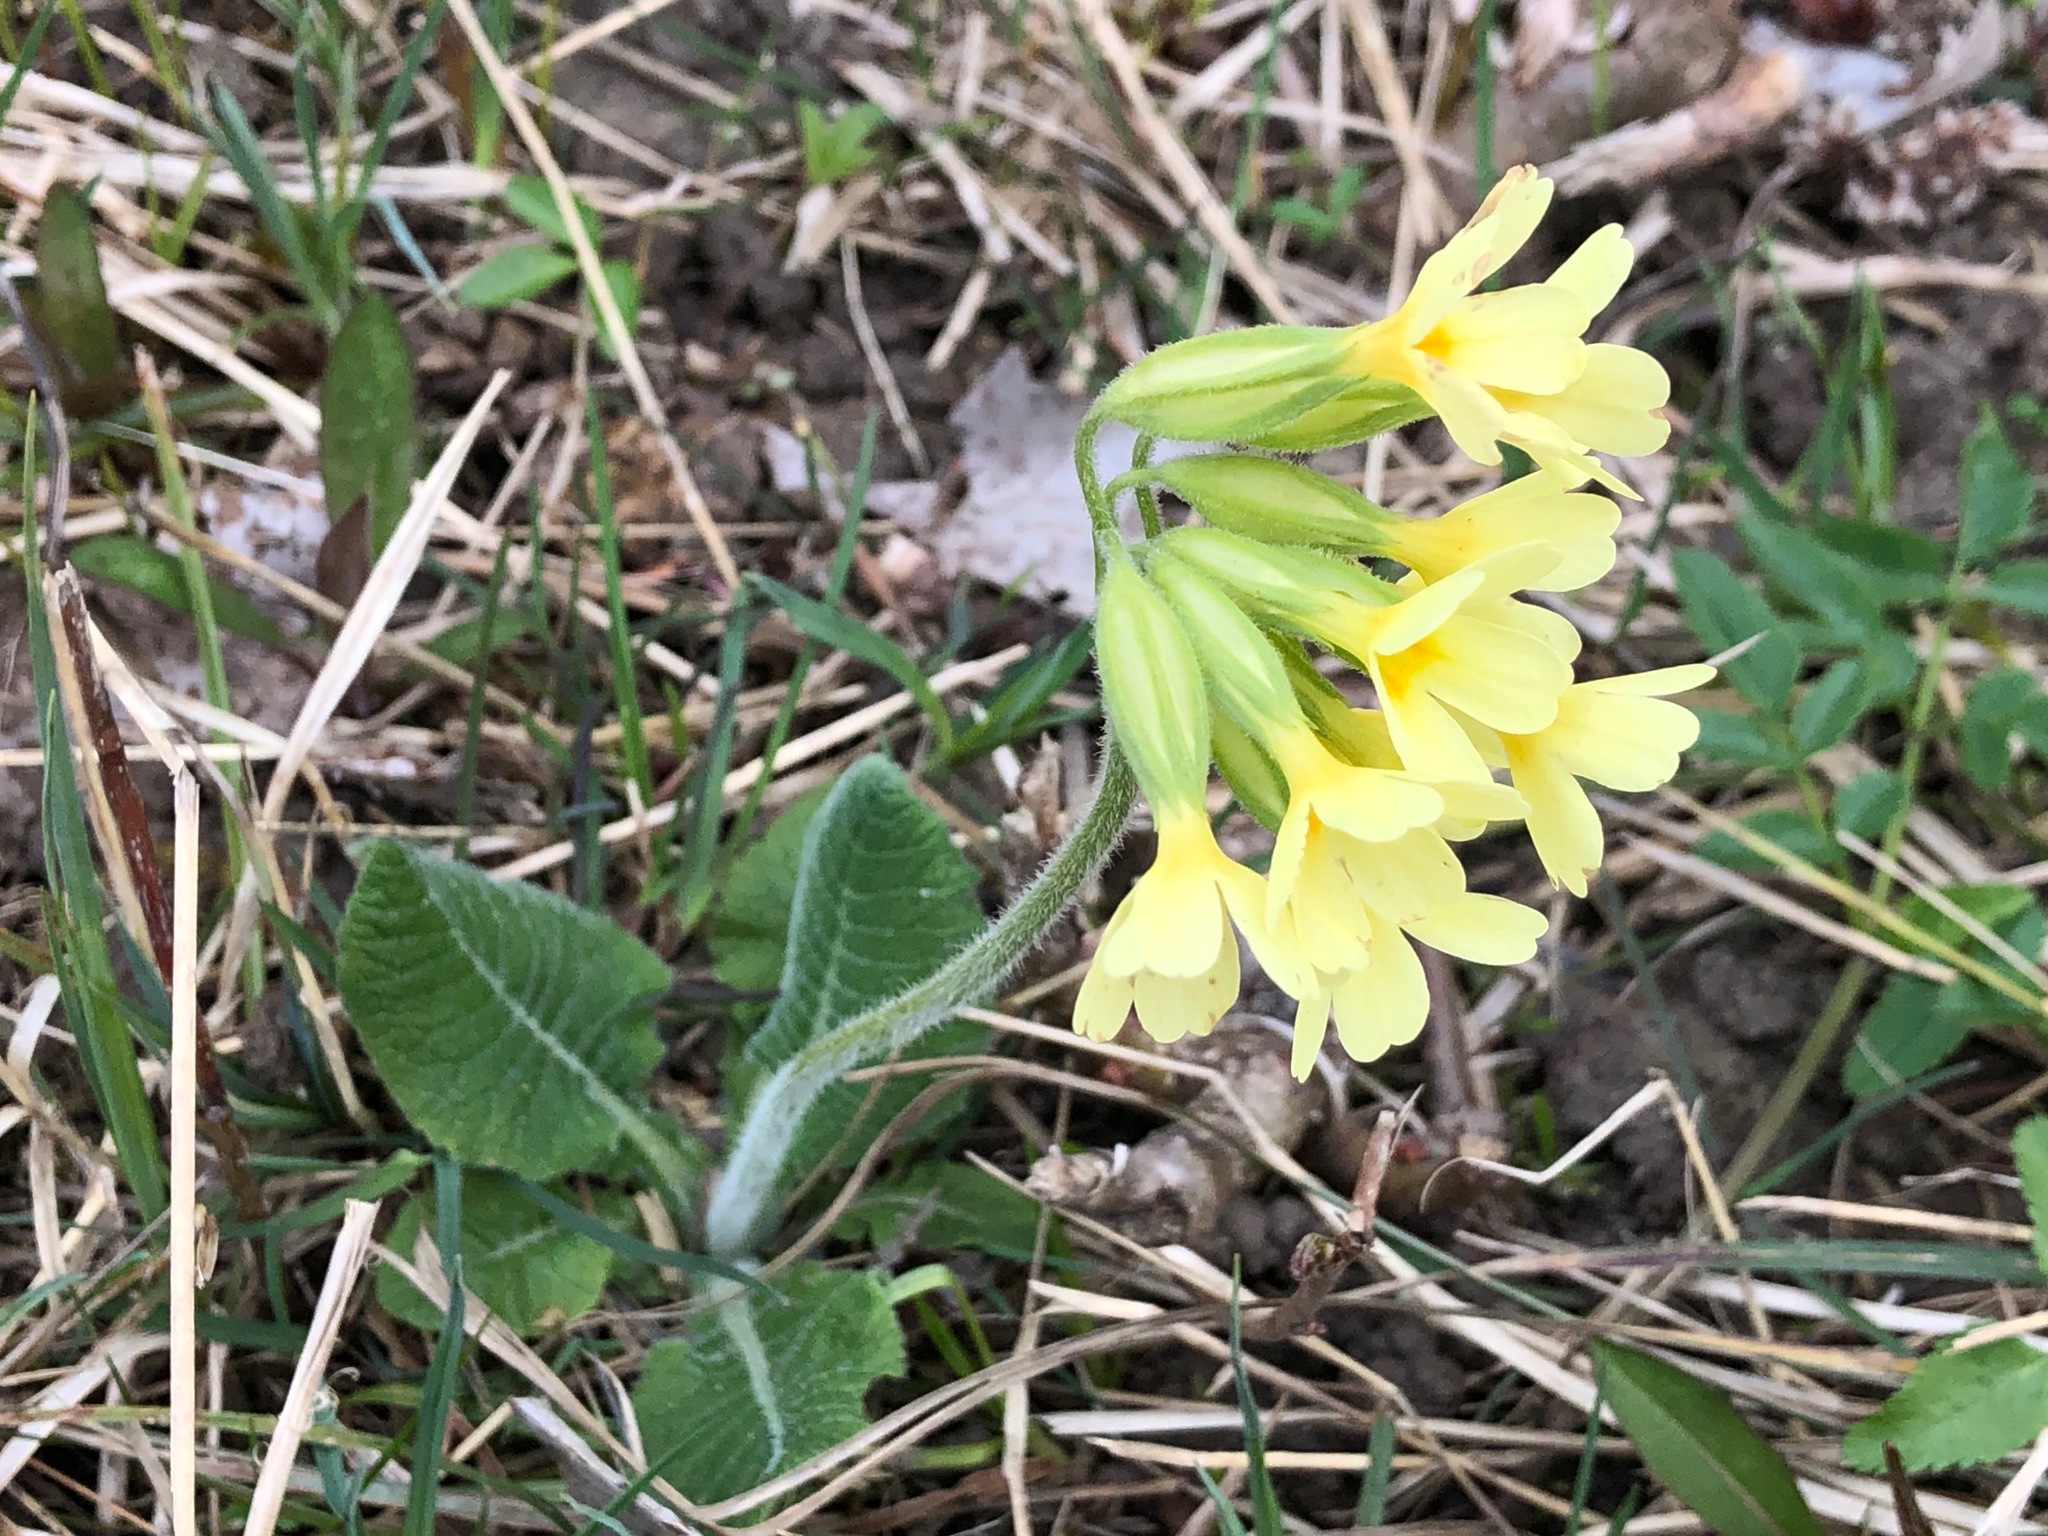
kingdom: Plantae
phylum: Tracheophyta
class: Magnoliopsida
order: Ericales
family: Primulaceae
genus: Primula
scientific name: Primula elatior
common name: Oxlip
